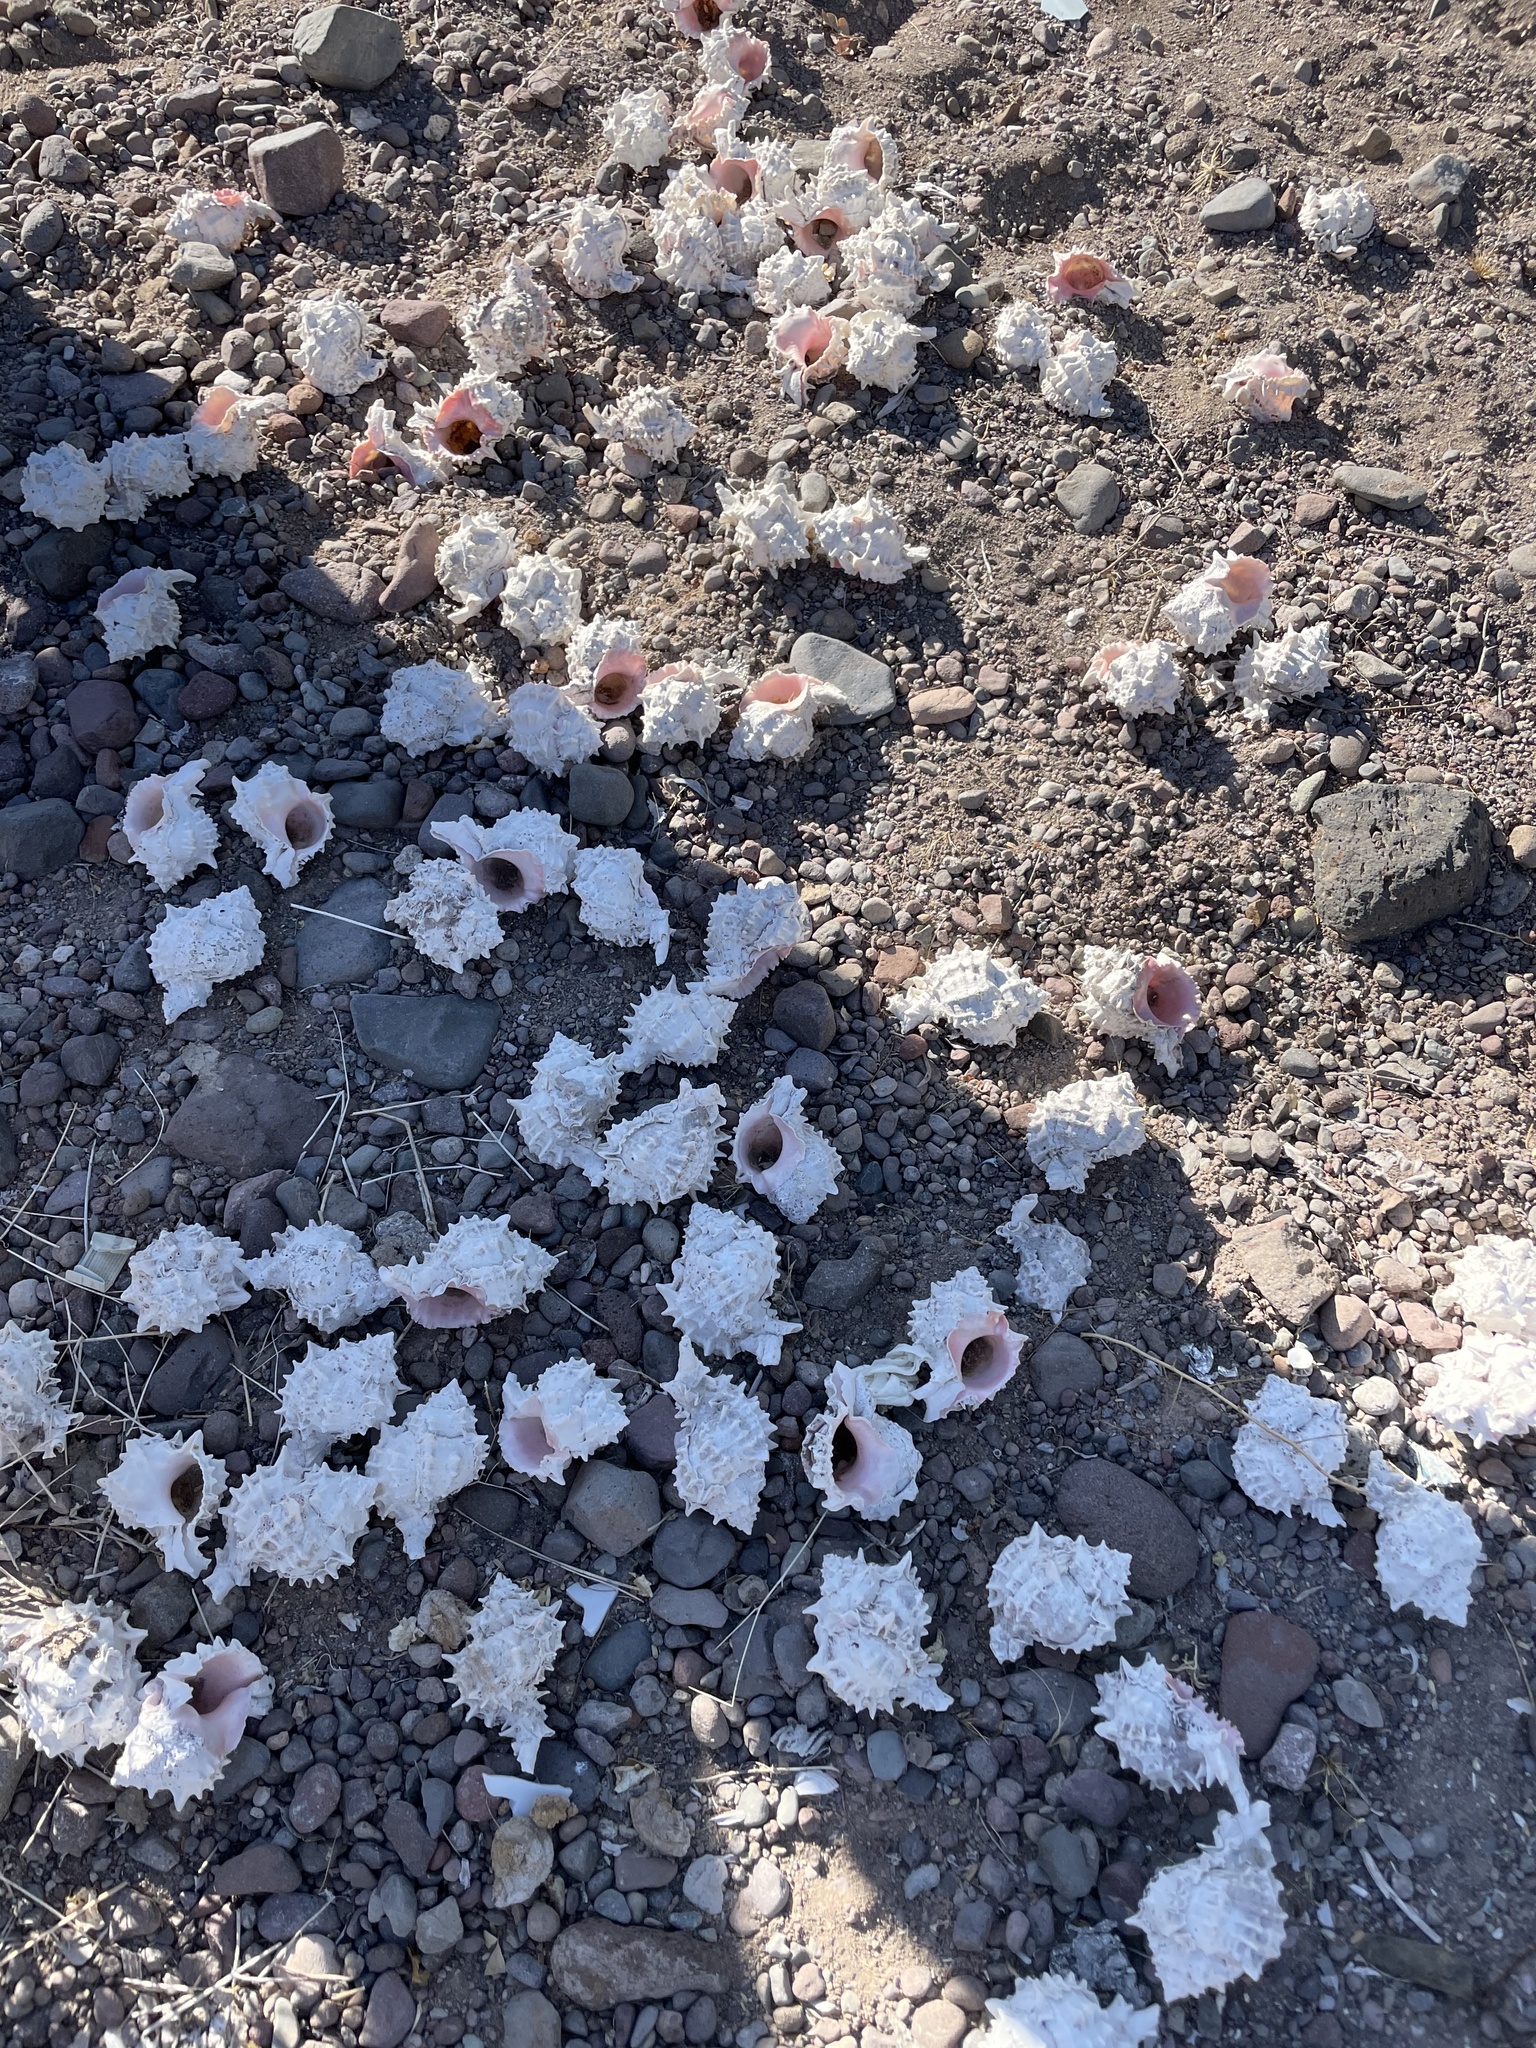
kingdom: Animalia
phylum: Mollusca
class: Gastropoda
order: Neogastropoda
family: Muricidae
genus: Phyllonotus
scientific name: Phyllonotus erythrostomus
